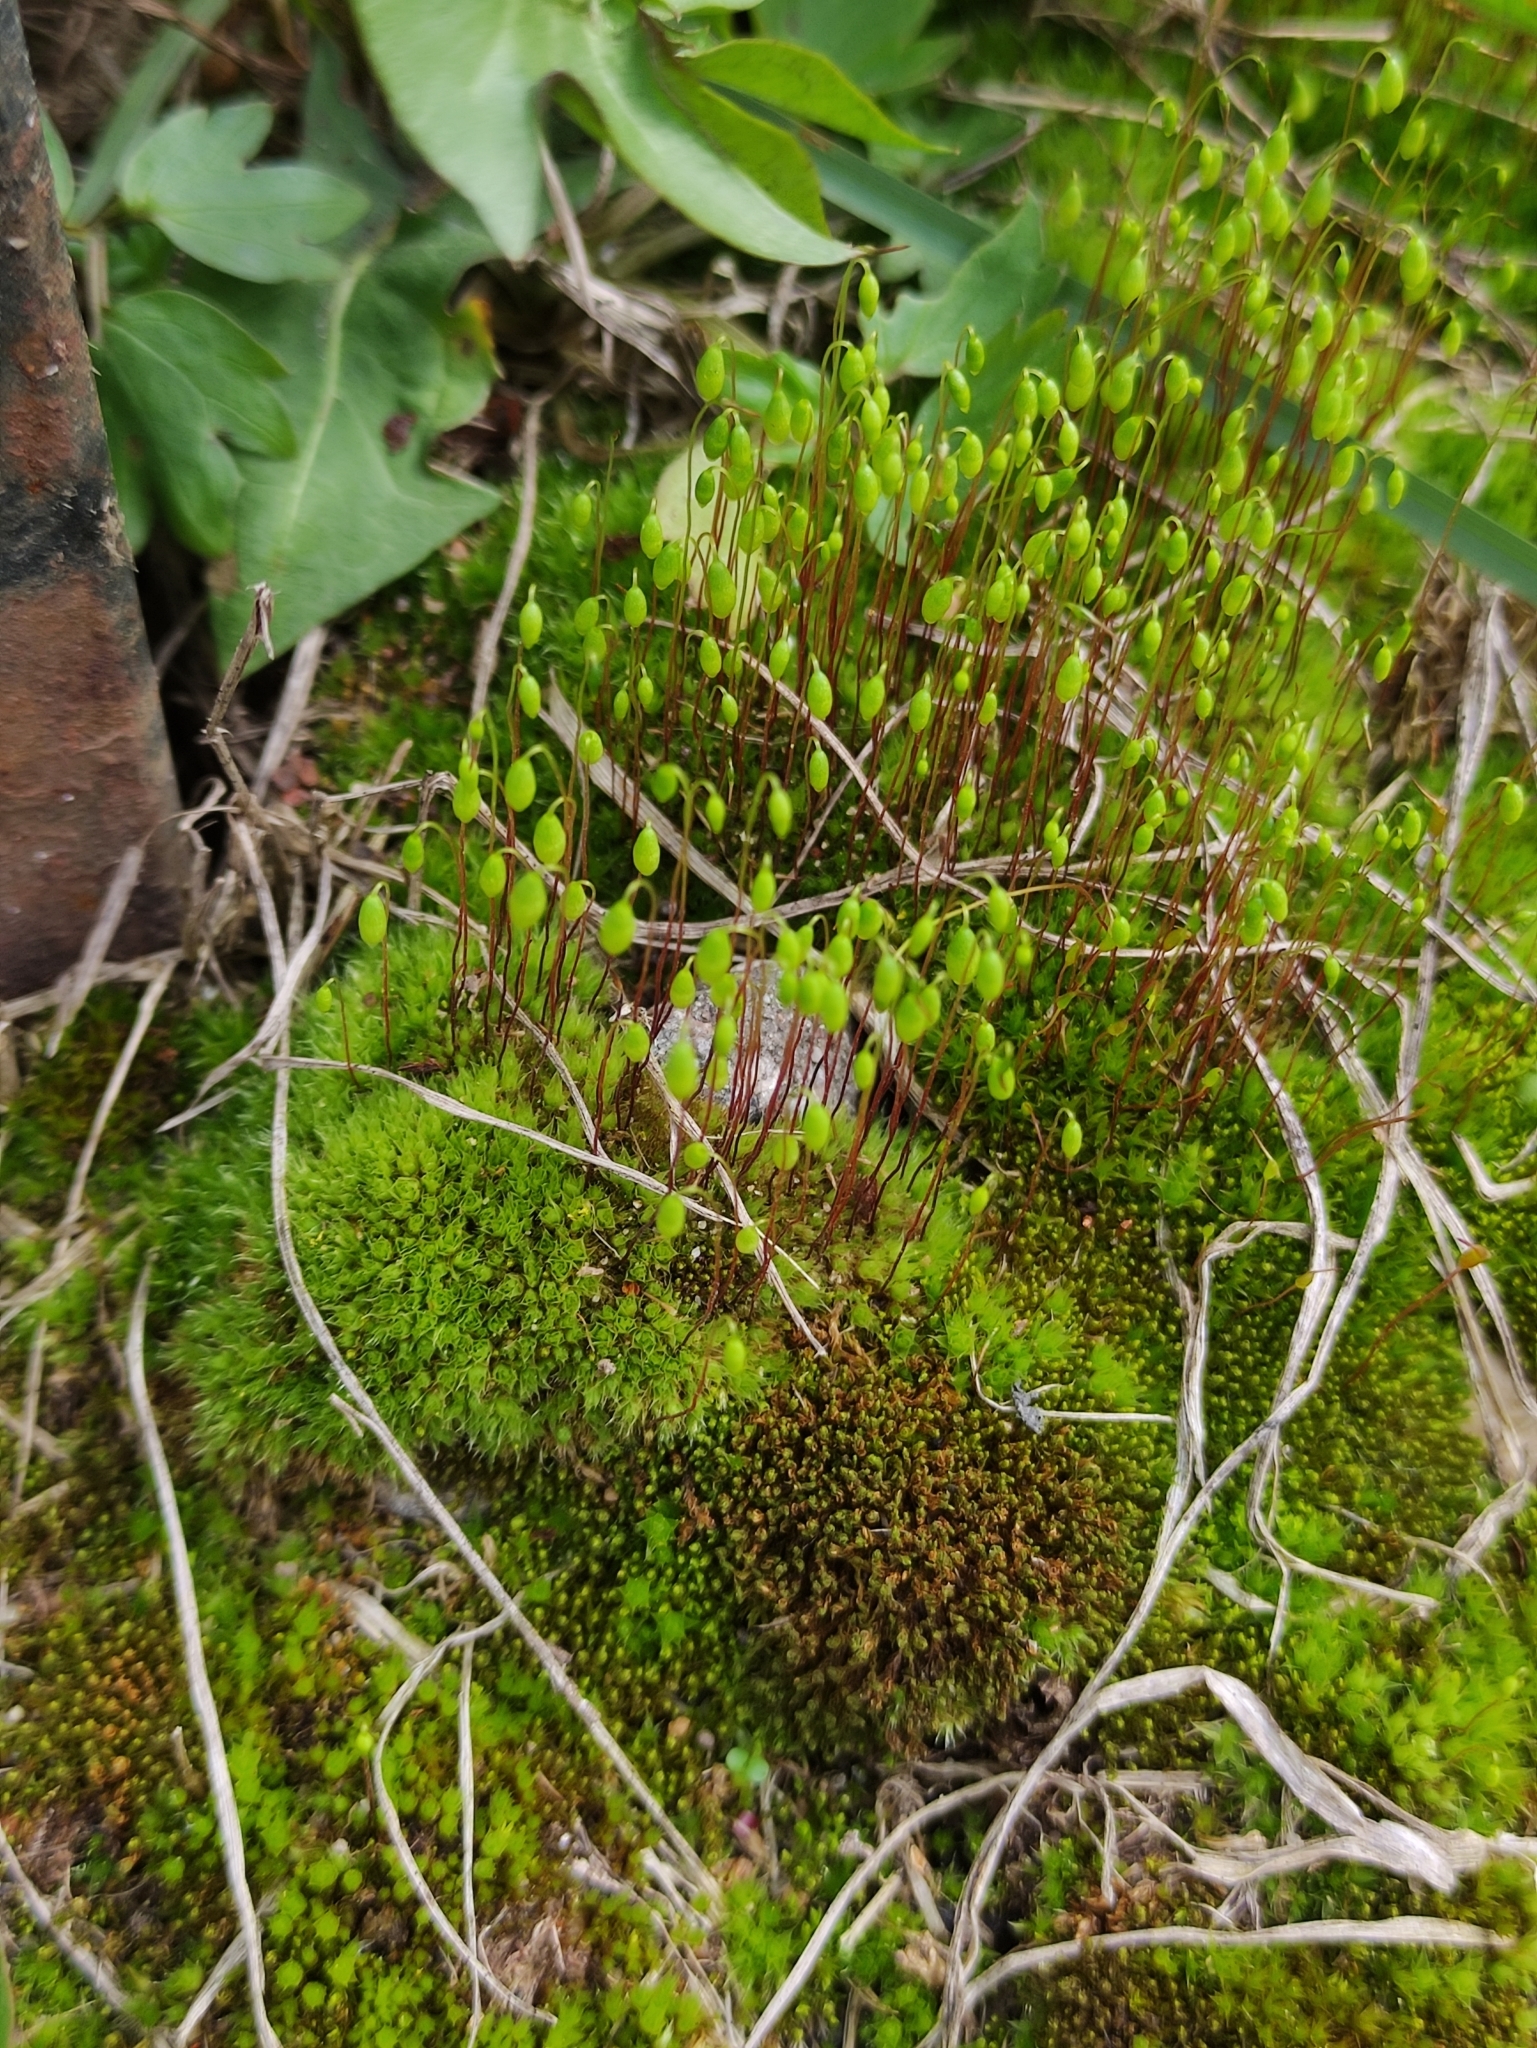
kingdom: Plantae
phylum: Bryophyta
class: Bryopsida
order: Bryales
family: Mniaceae
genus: Pohlia
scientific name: Pohlia nutans
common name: Nodding thread-moss
